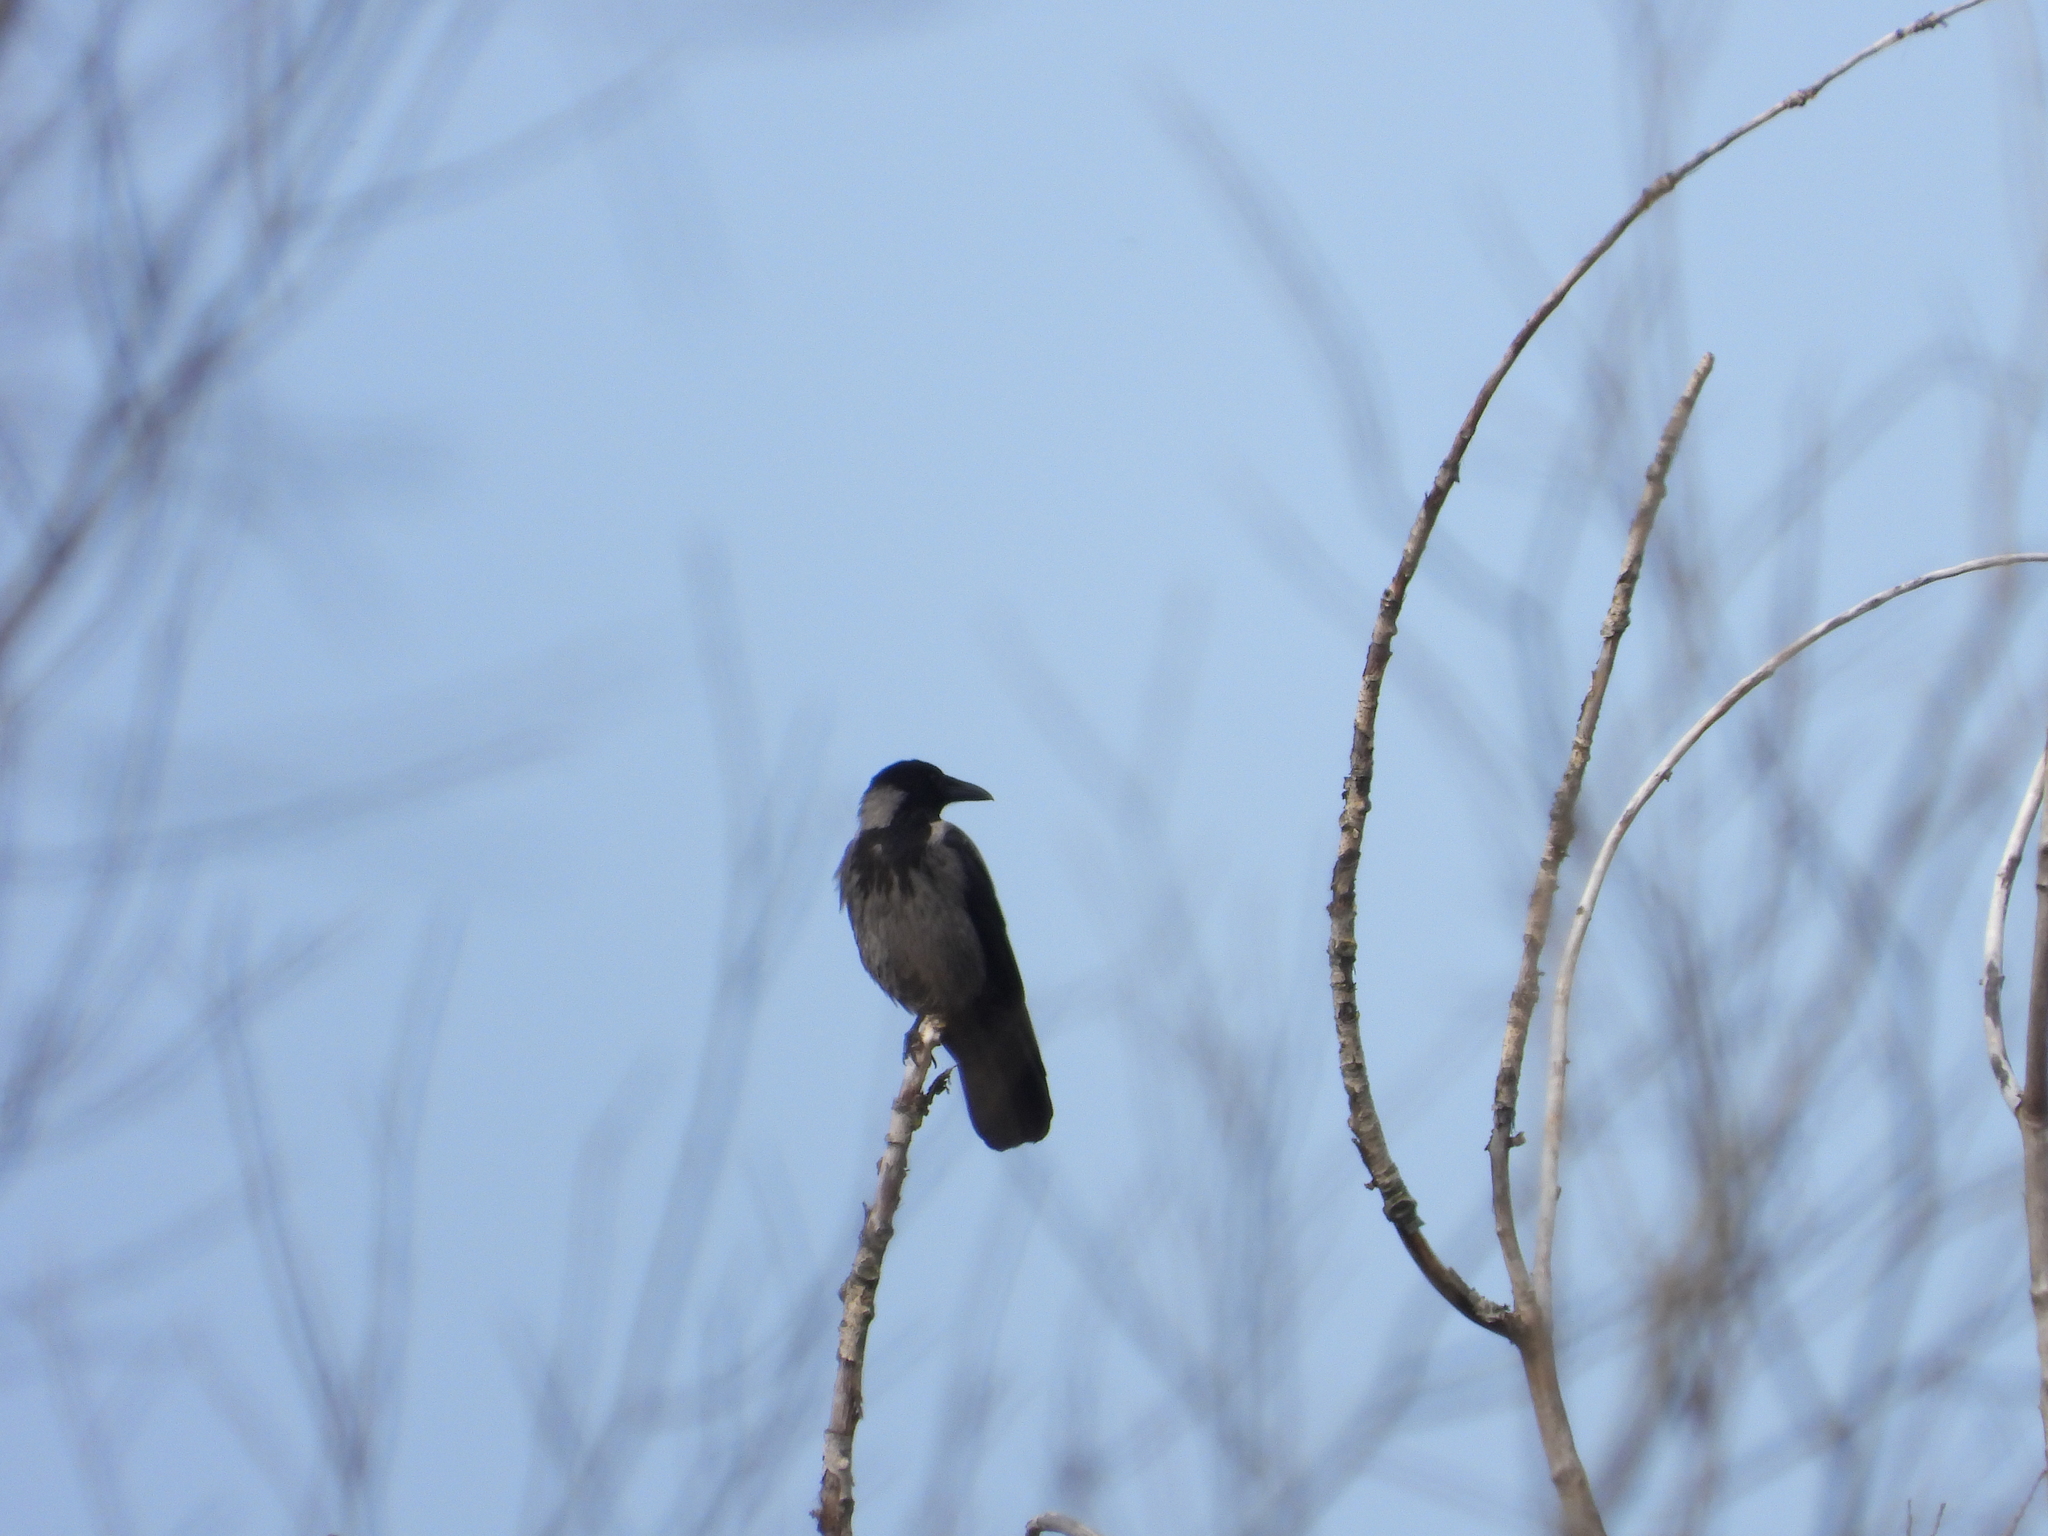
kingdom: Animalia
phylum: Chordata
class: Aves
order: Passeriformes
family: Corvidae
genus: Corvus
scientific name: Corvus cornix
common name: Hooded crow
